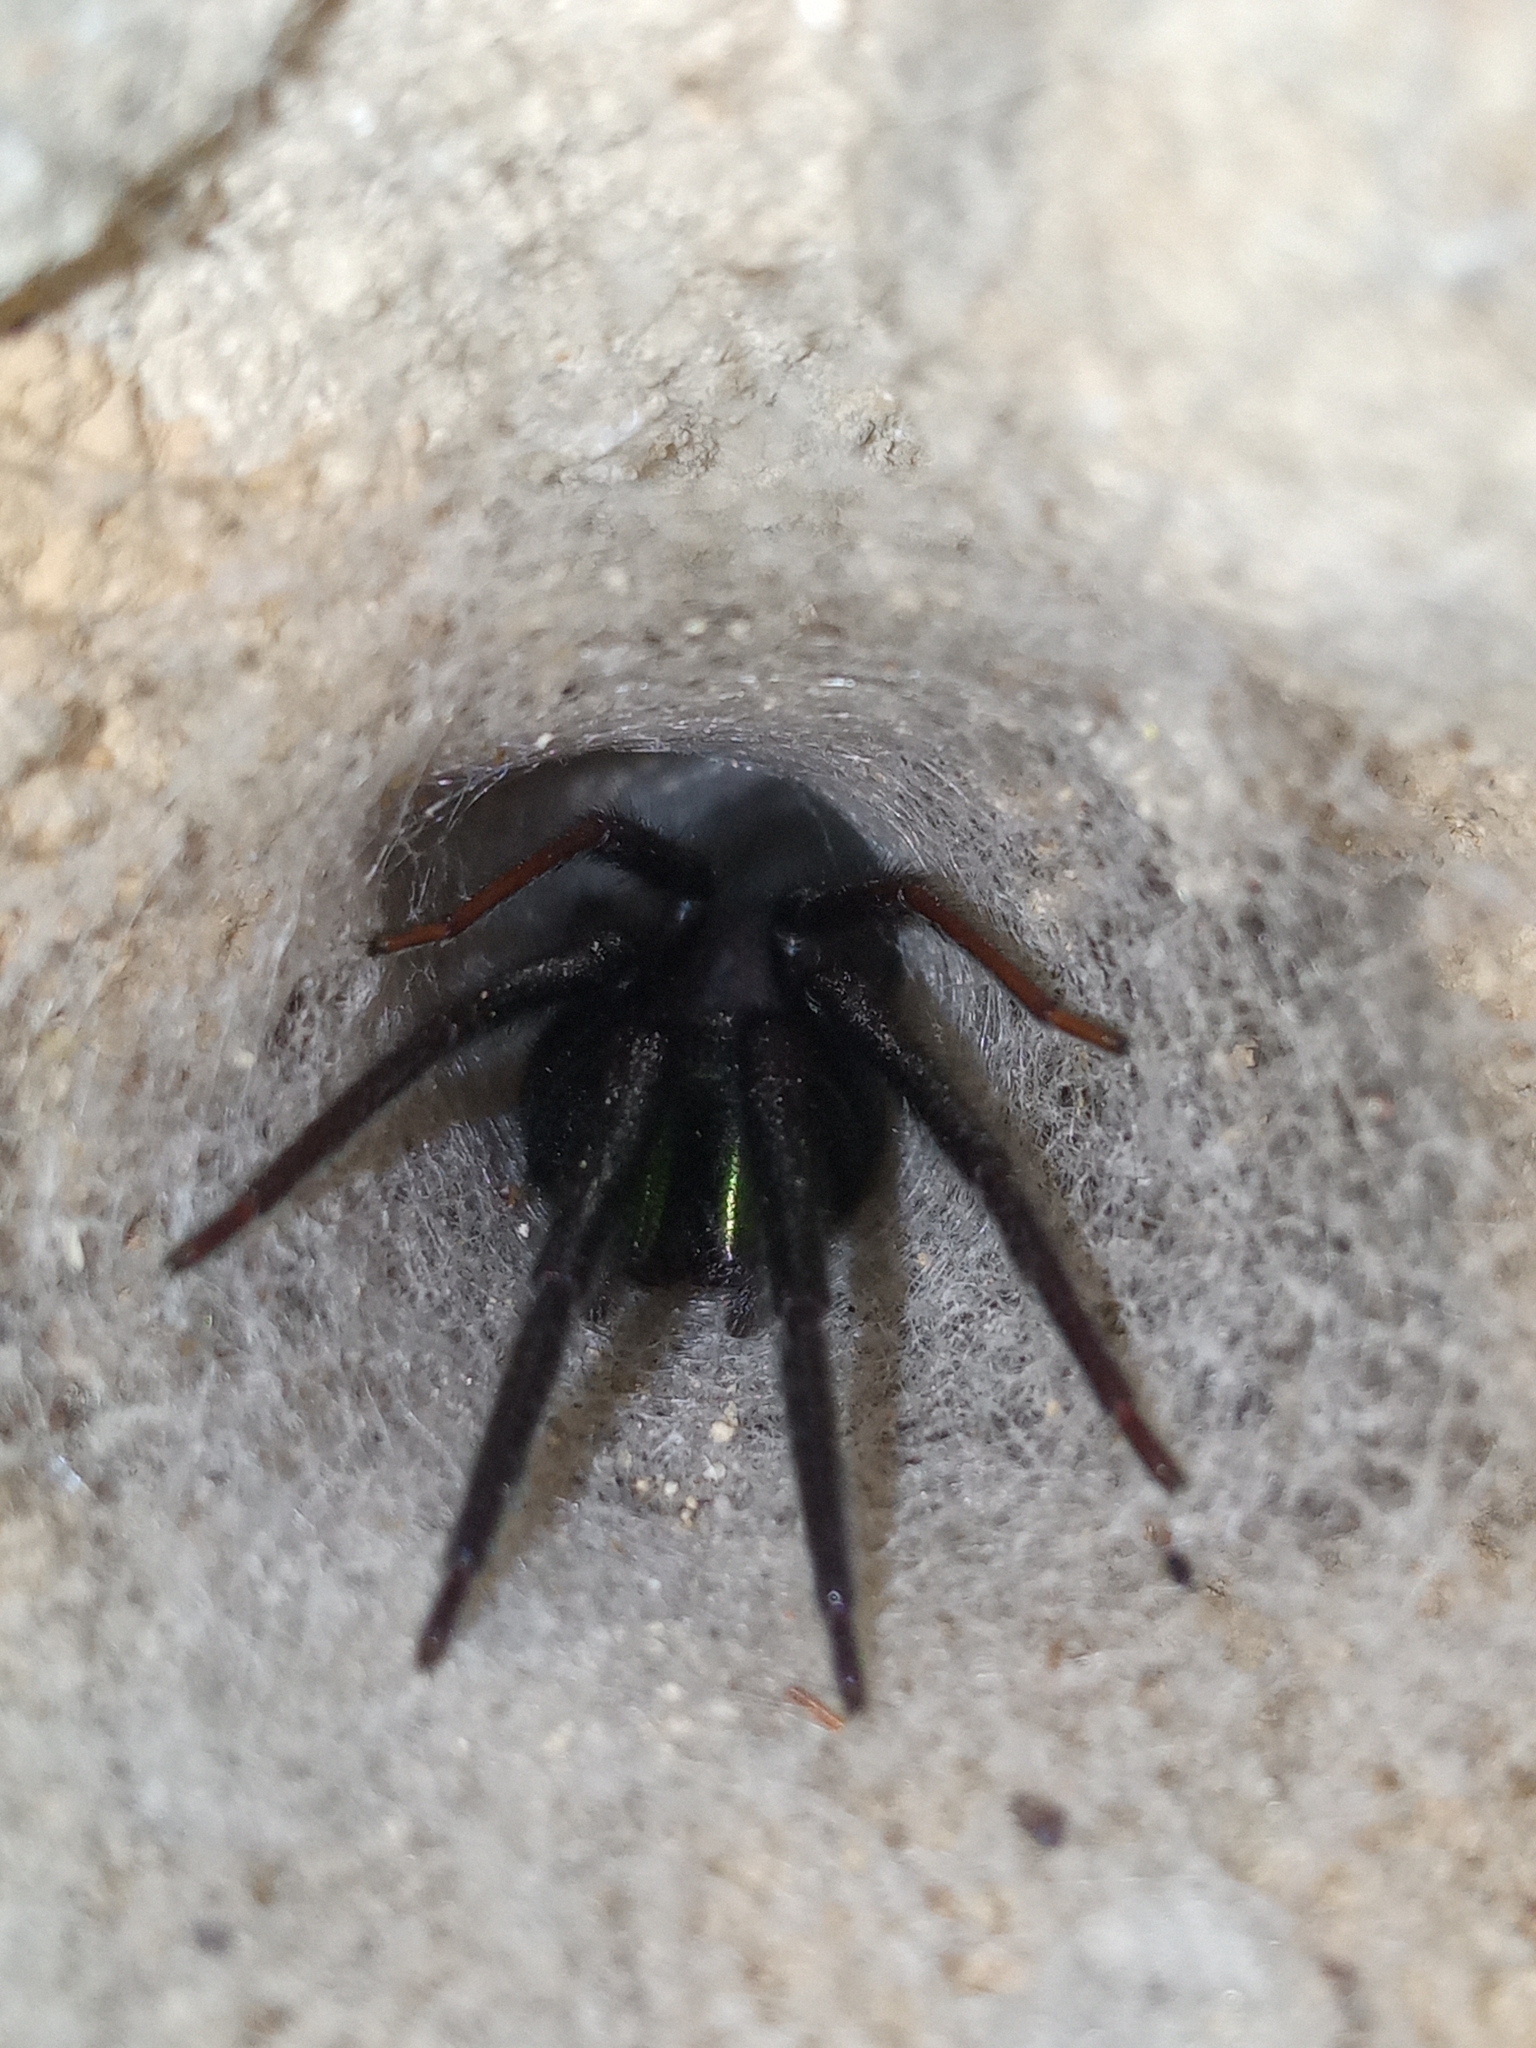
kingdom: Animalia
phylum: Arthropoda
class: Arachnida
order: Araneae
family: Segestriidae
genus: Segestria
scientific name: Segestria florentina
